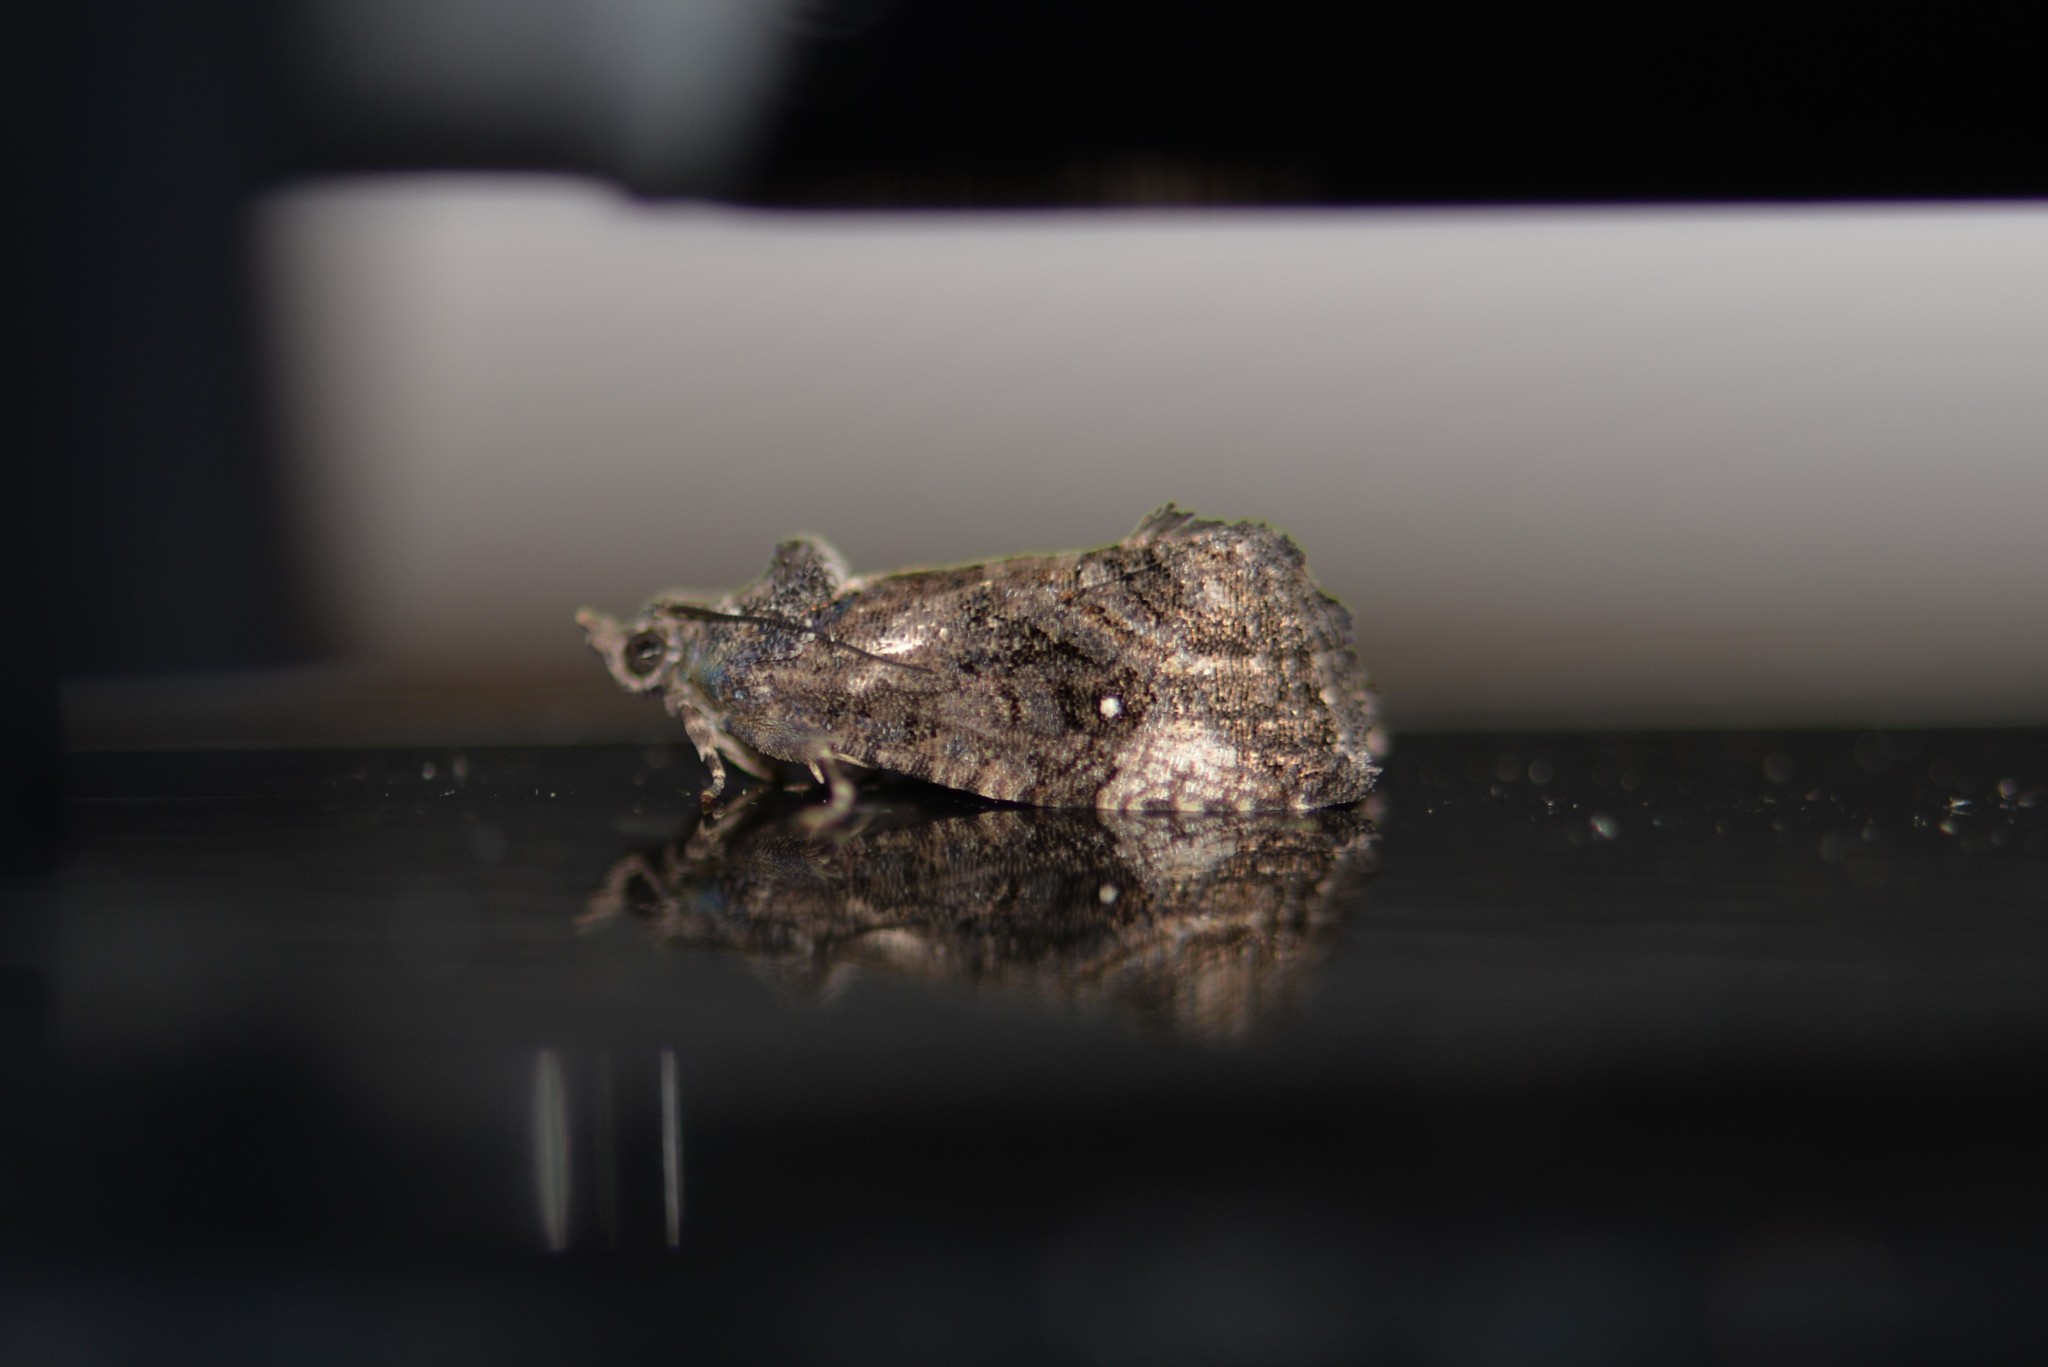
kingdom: Animalia
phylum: Arthropoda
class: Insecta
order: Lepidoptera
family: Tortricidae
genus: Gymnandrosoma
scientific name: Gymnandrosoma punctidiscanum
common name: Dotted ecdytolopha moth
